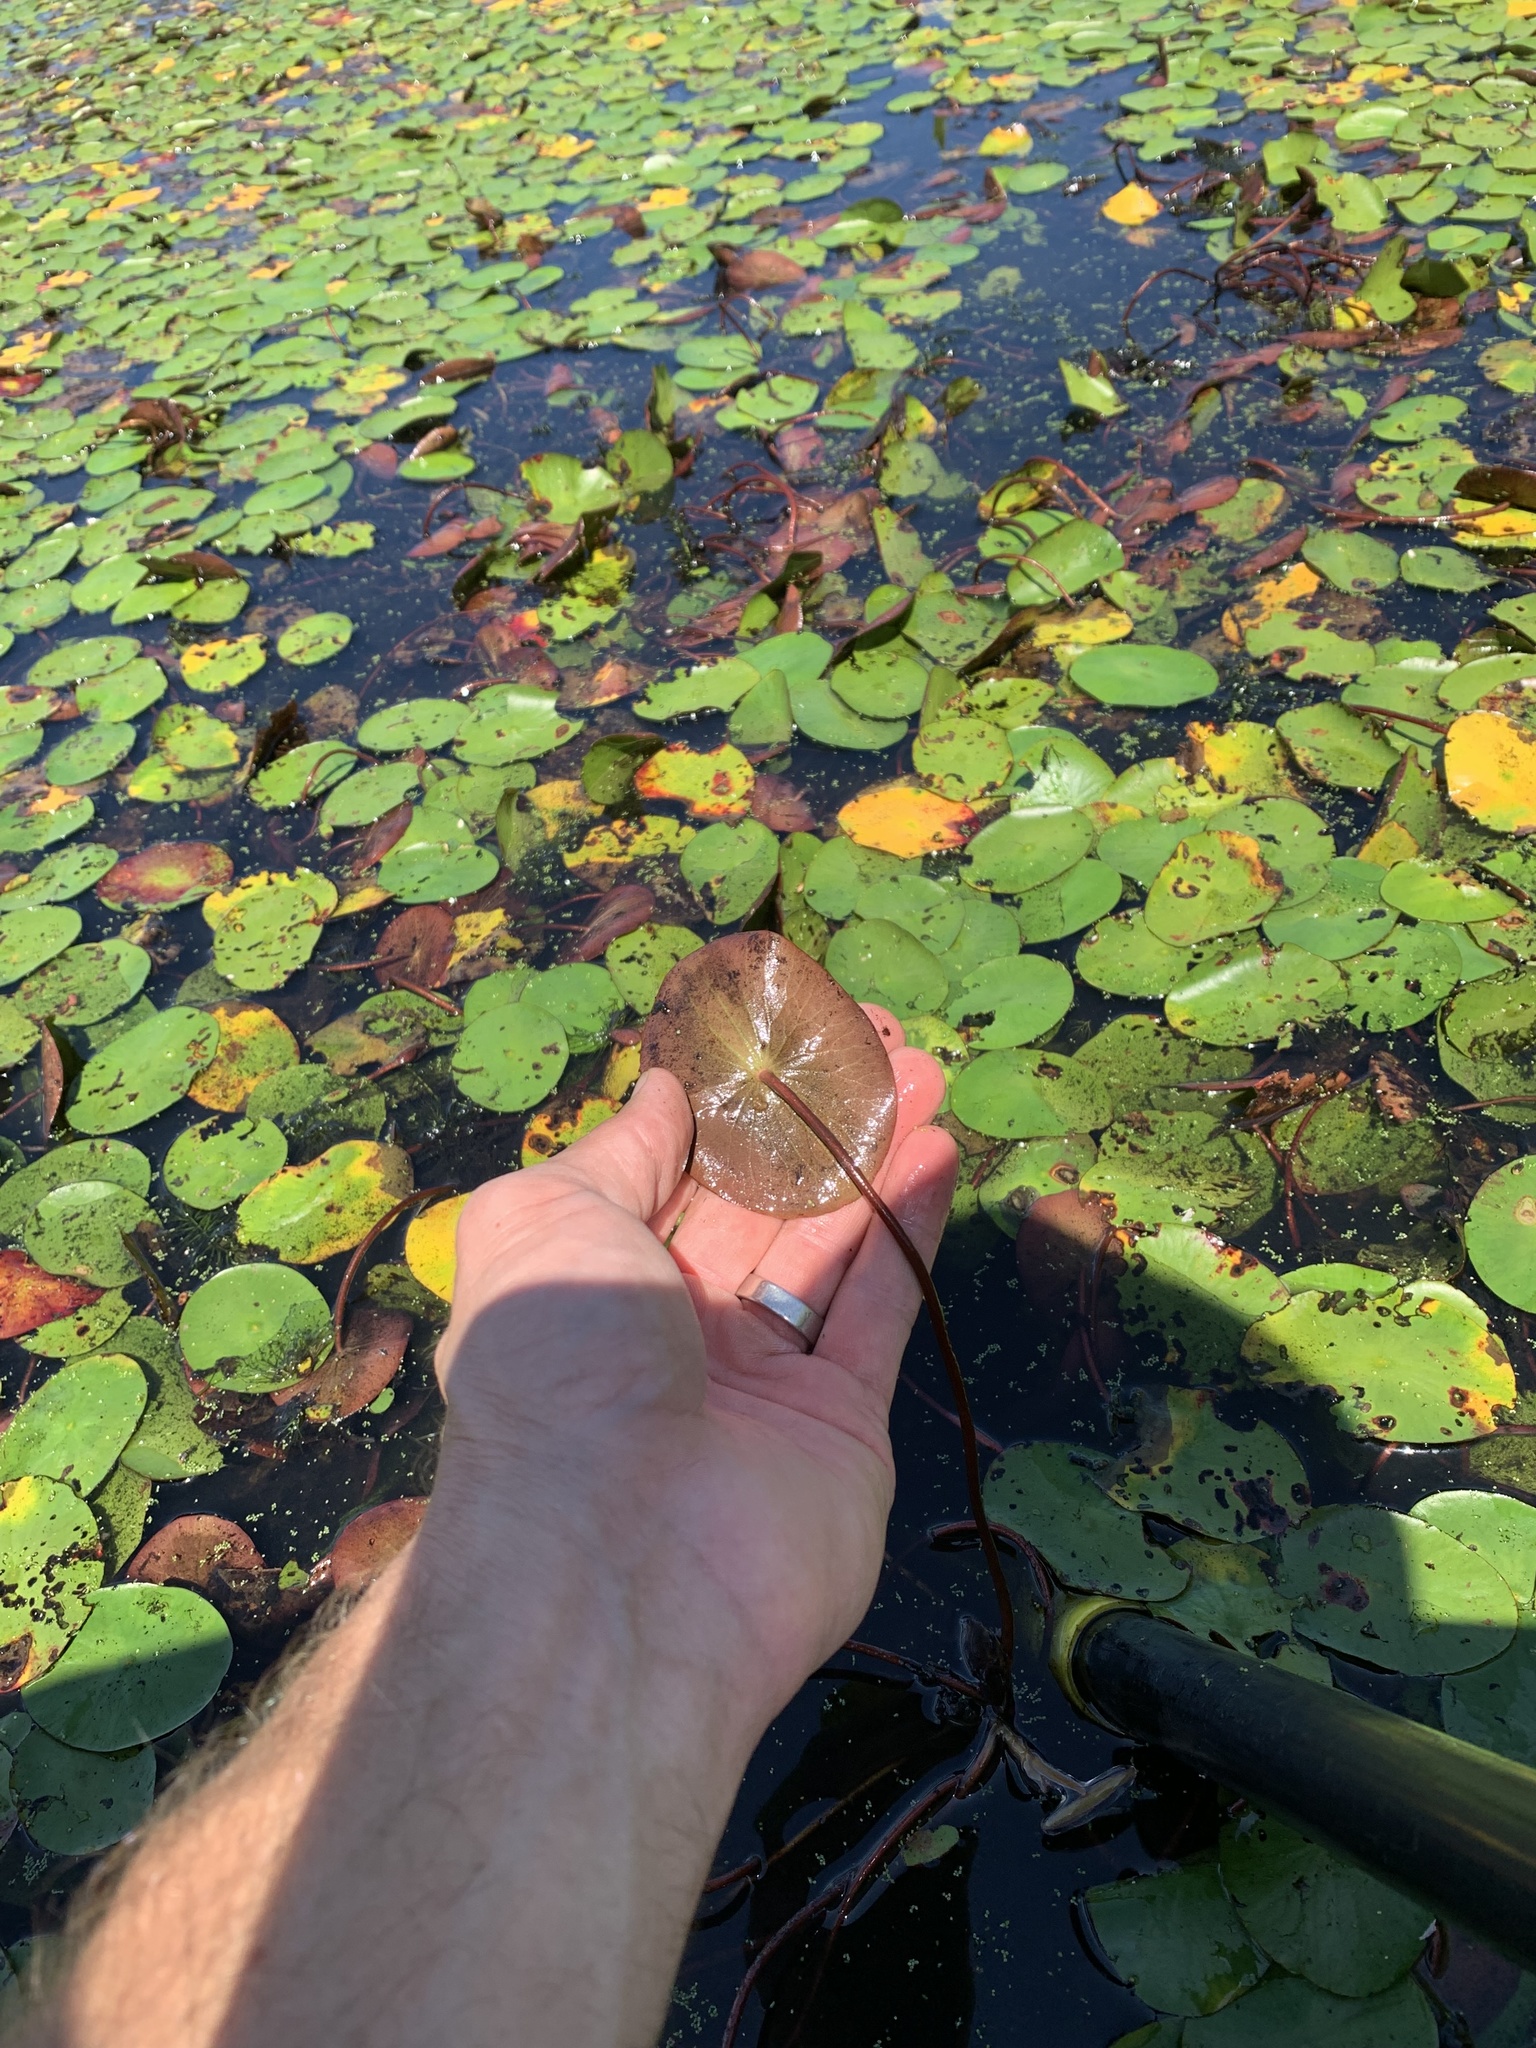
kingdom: Plantae
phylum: Tracheophyta
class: Magnoliopsida
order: Nymphaeales
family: Cabombaceae
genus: Brasenia
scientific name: Brasenia schreberi
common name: Water-shield
